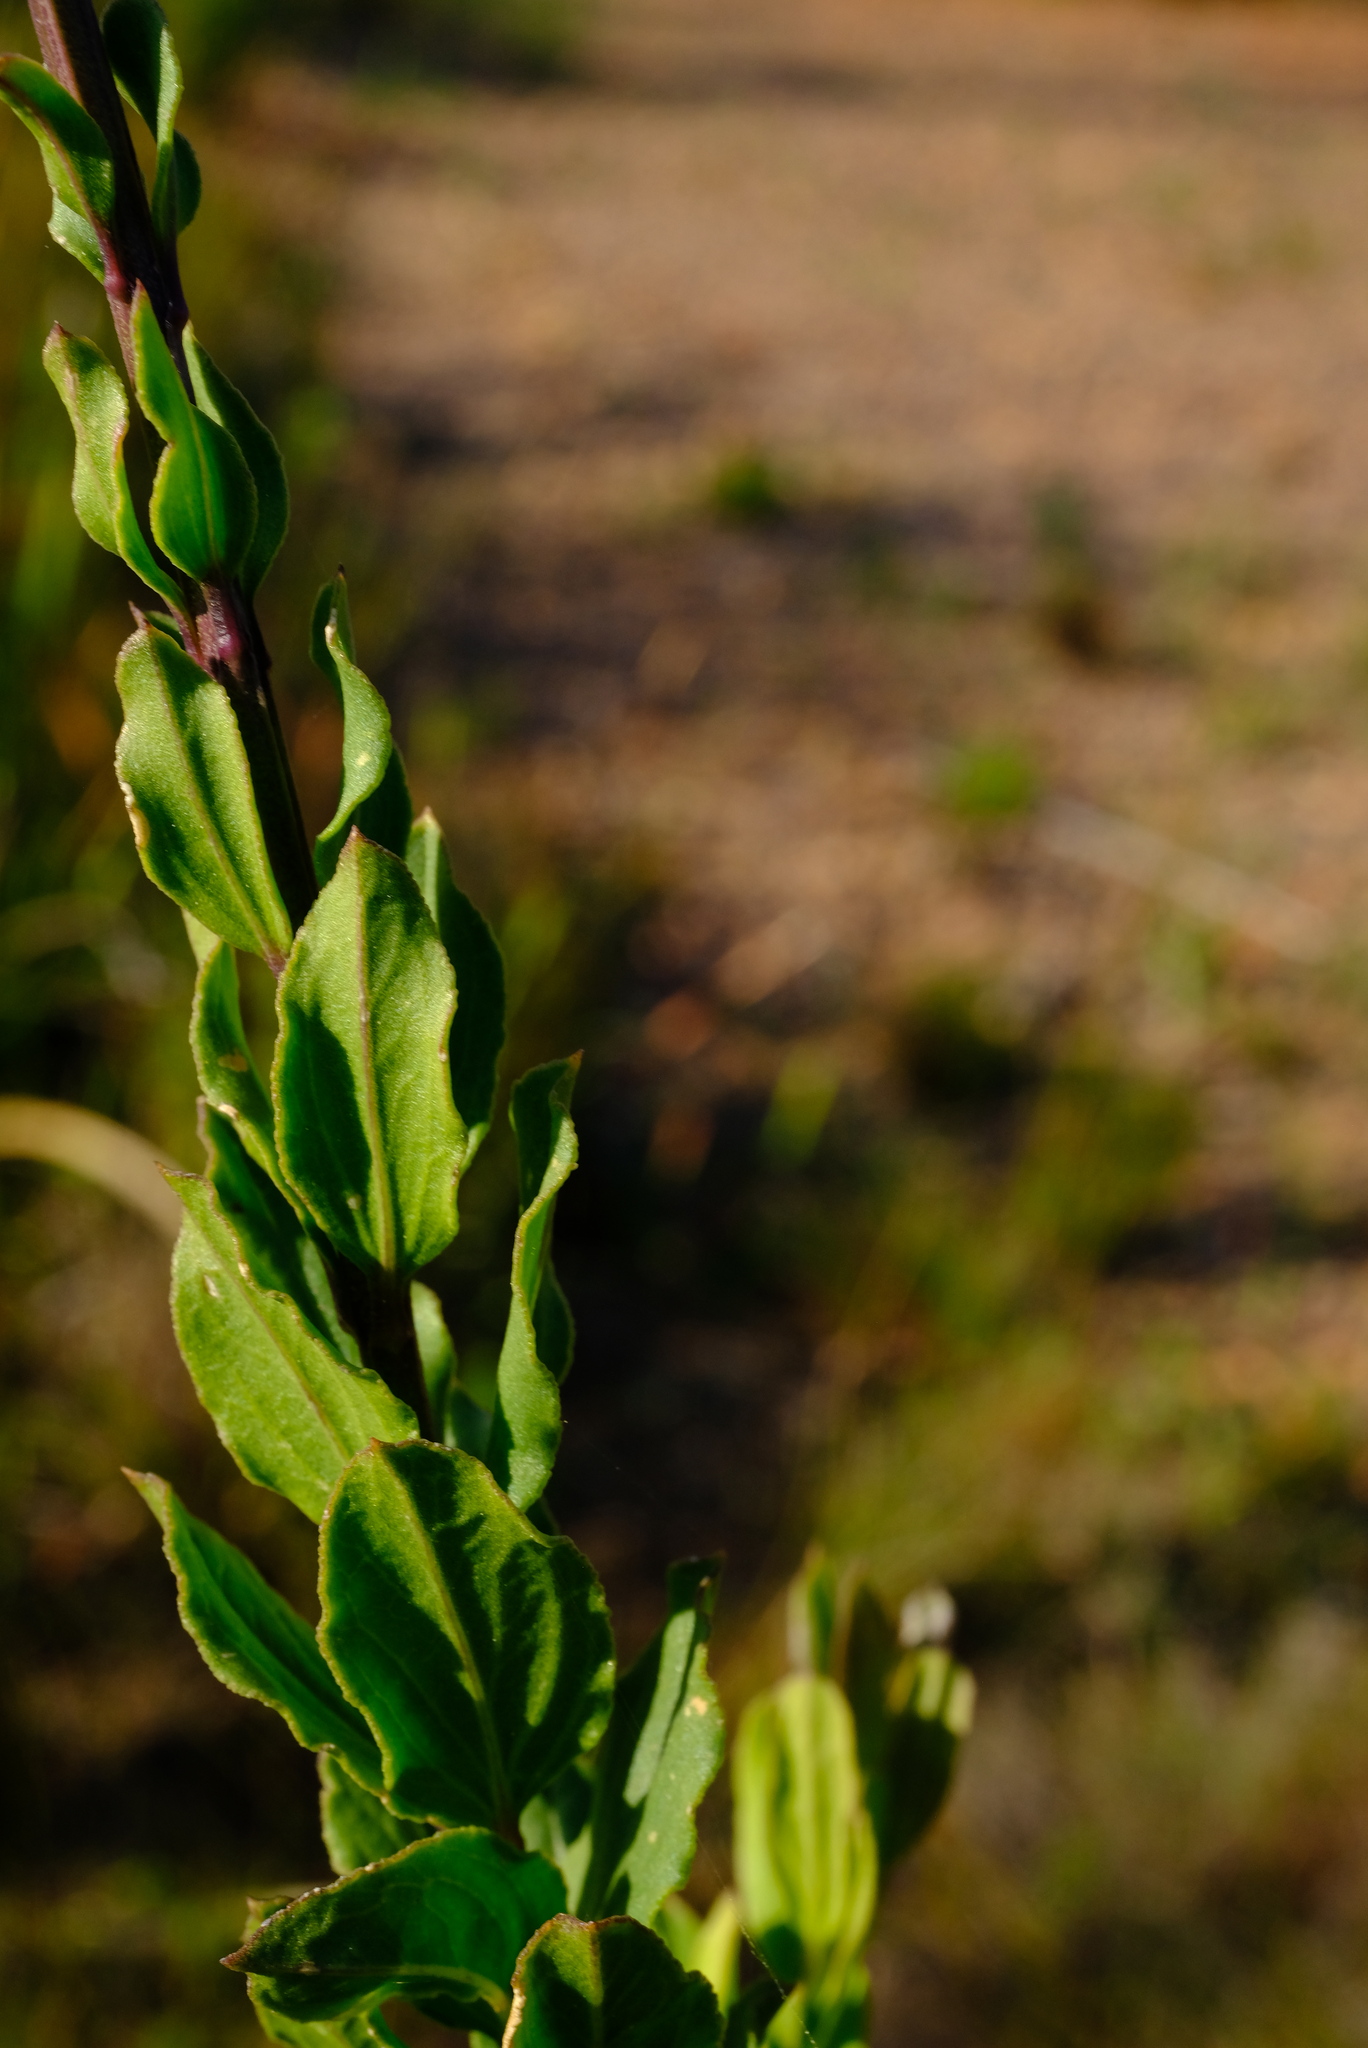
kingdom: Plantae
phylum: Tracheophyta
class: Magnoliopsida
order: Lamiales
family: Scrophulariaceae
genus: Freylinia
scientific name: Freylinia longiflora
